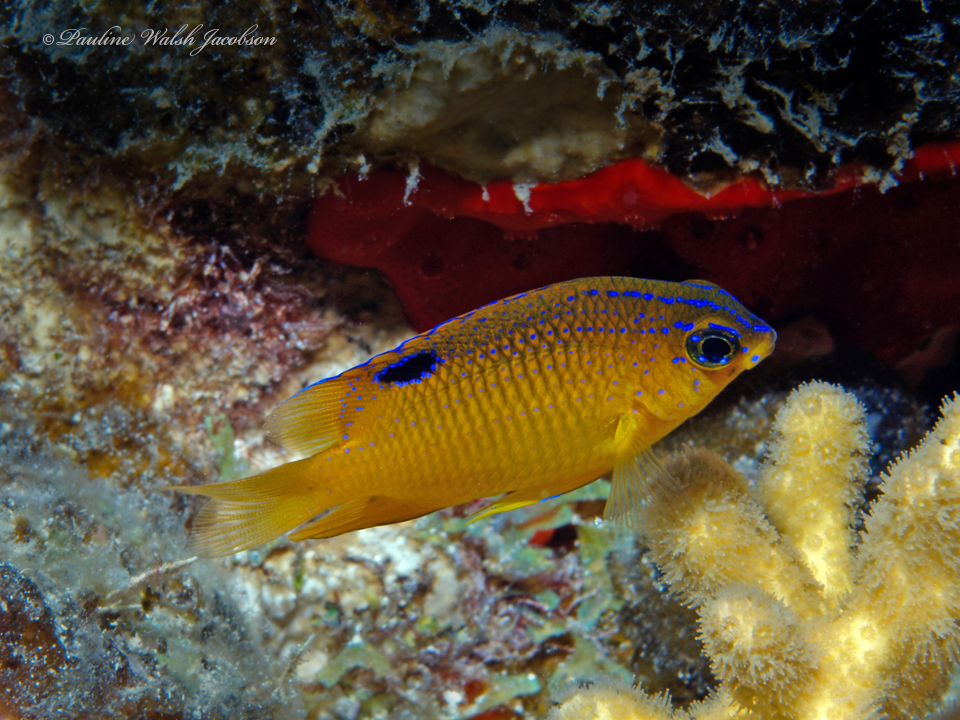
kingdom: Animalia
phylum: Chordata
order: Perciformes
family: Pomacentridae
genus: Stegastes
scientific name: Stegastes diencaeus
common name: Longfin damselfish
